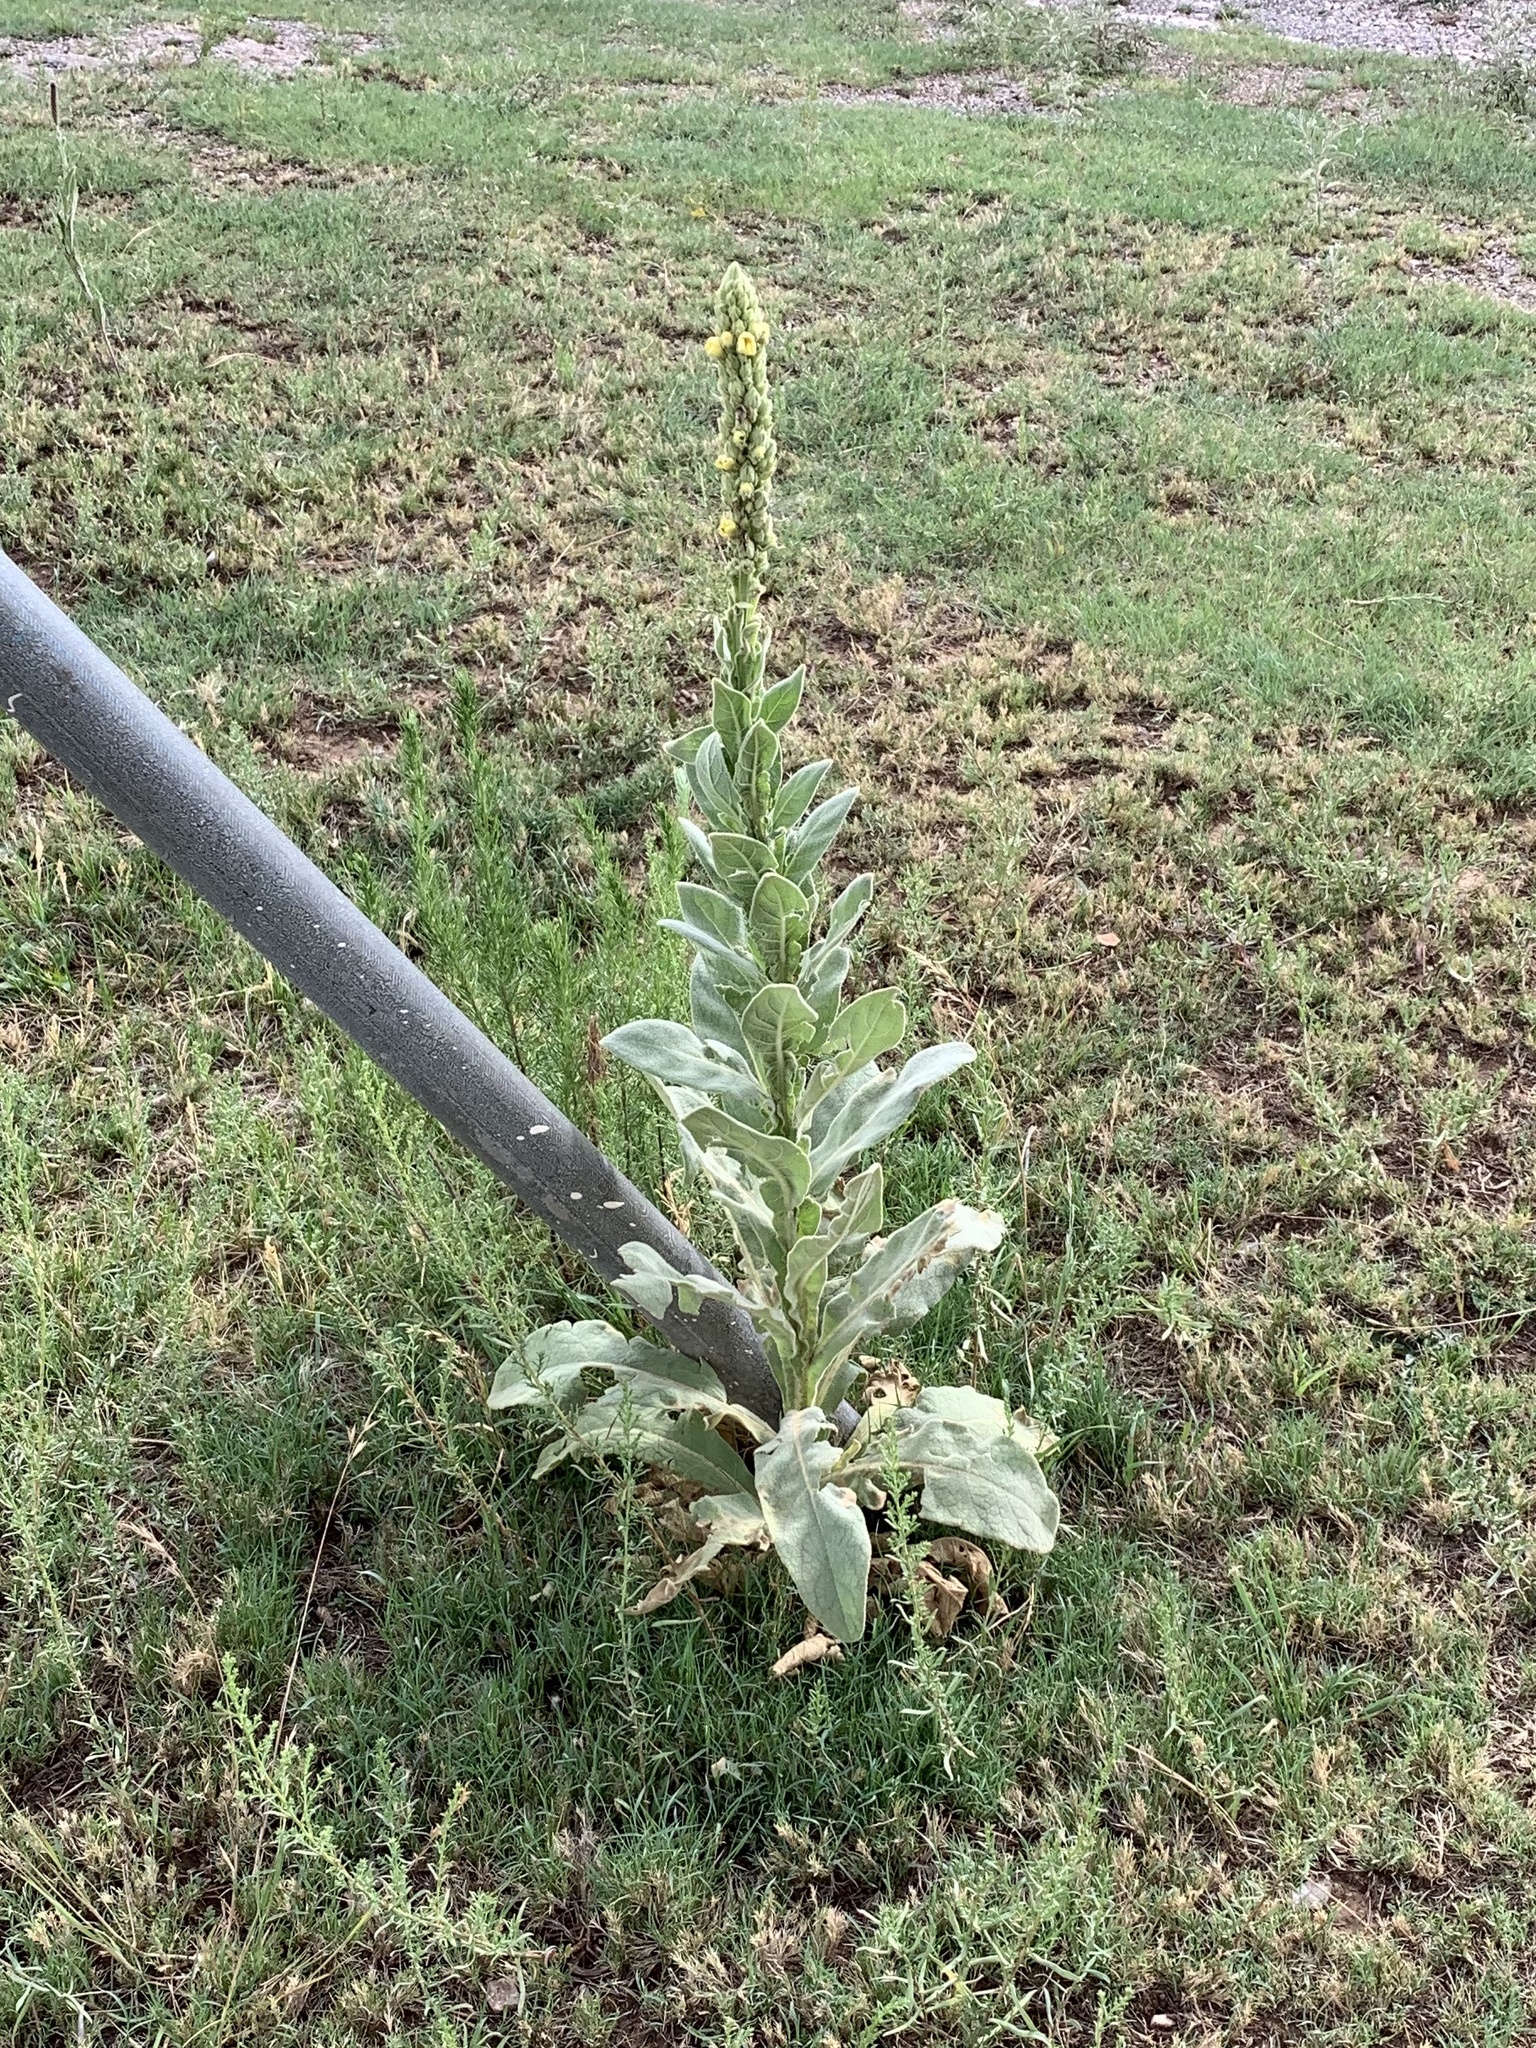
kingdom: Plantae
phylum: Tracheophyta
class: Magnoliopsida
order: Lamiales
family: Scrophulariaceae
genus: Verbascum
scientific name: Verbascum thapsus
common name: Common mullein
